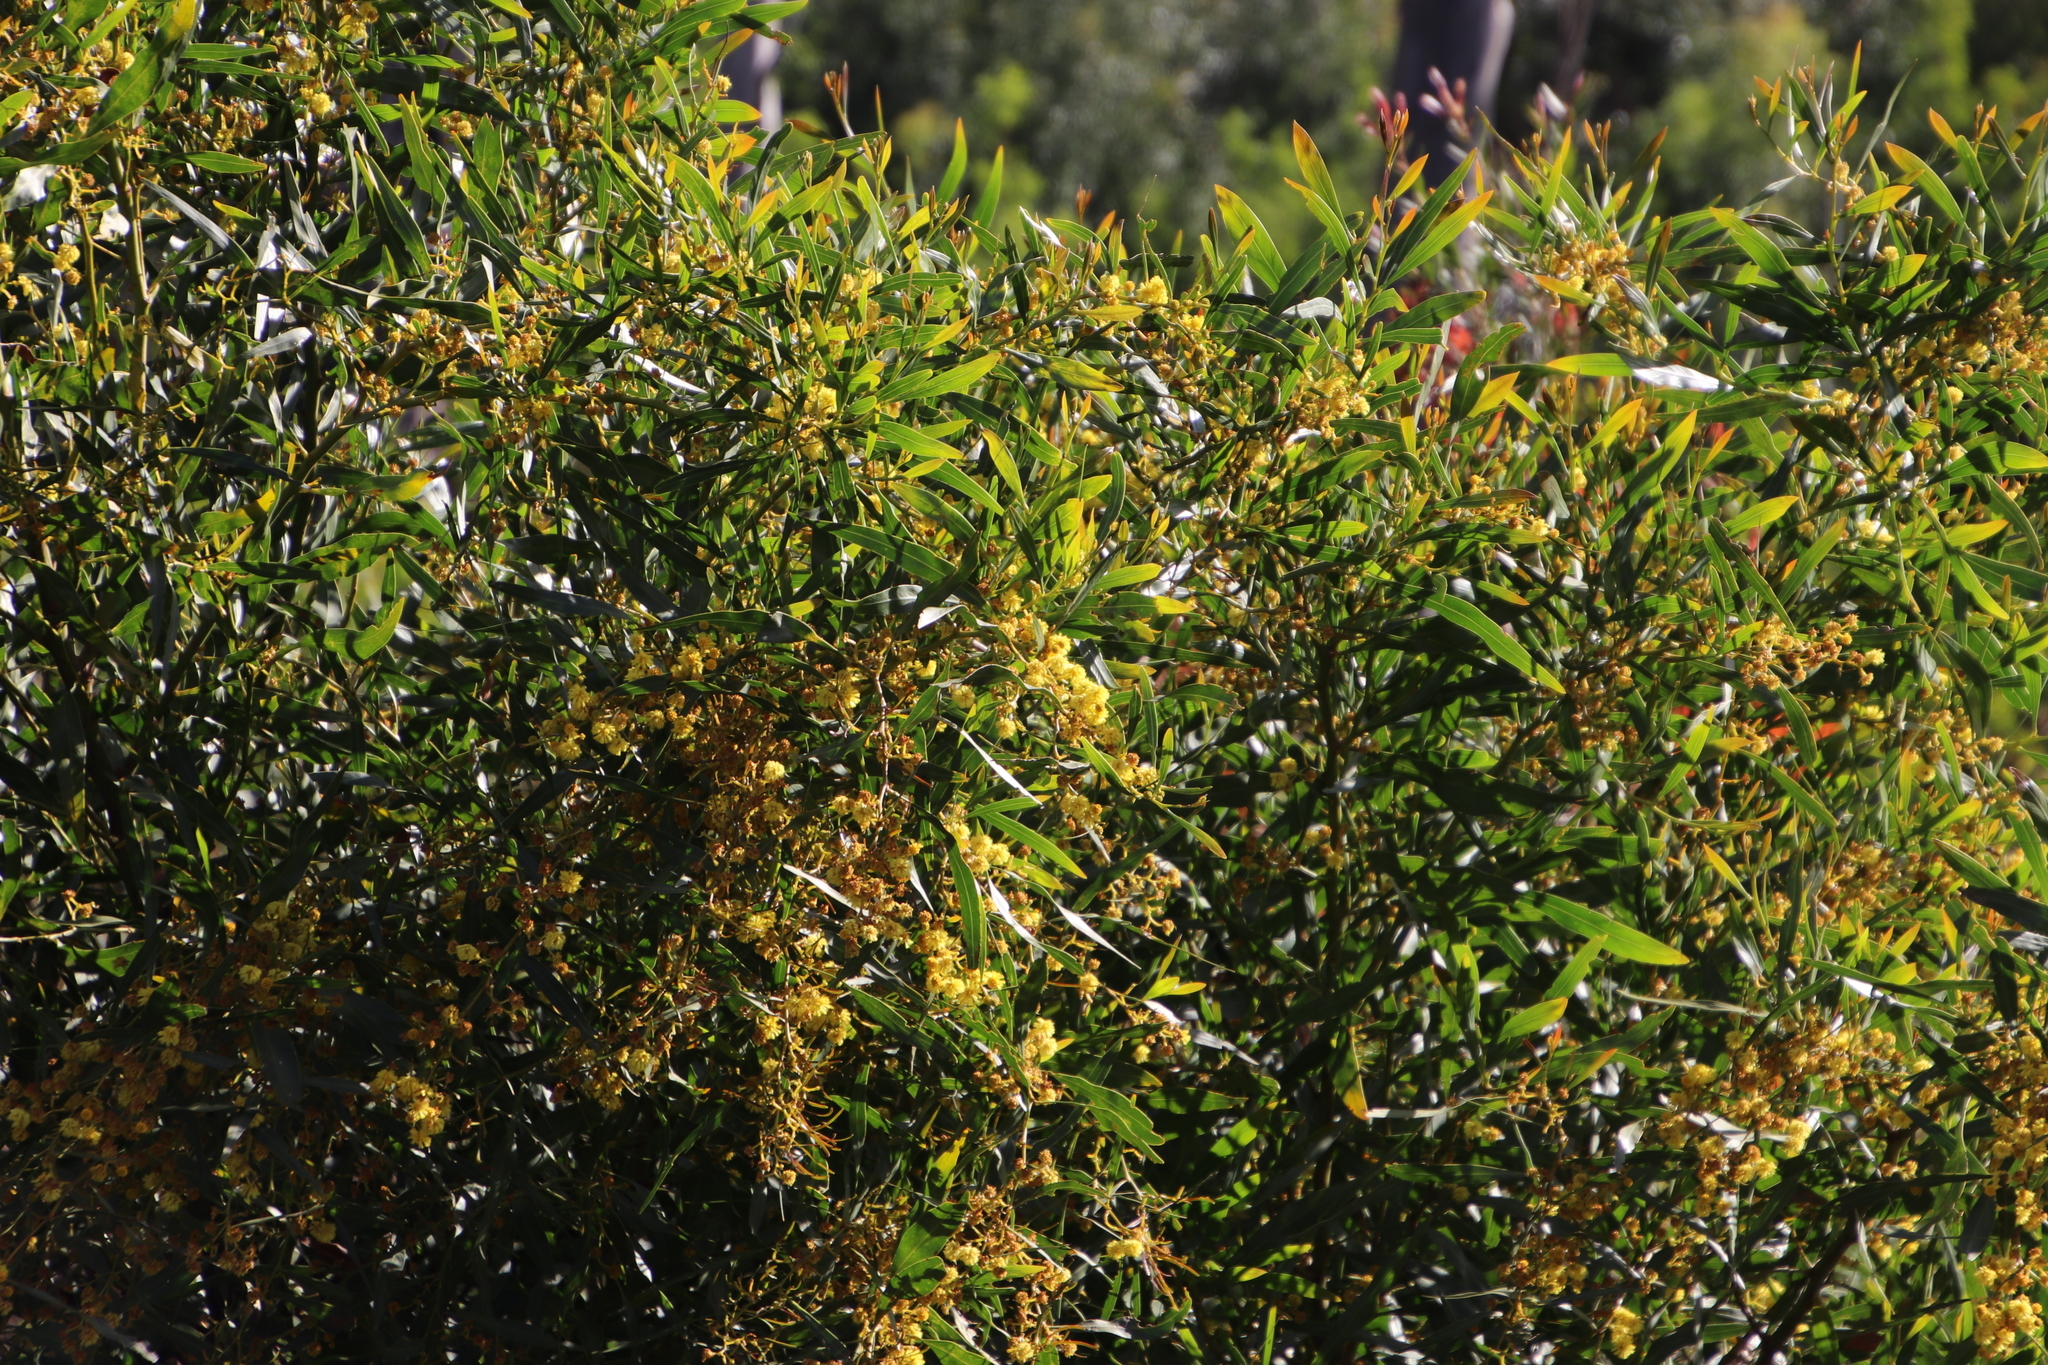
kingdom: Plantae
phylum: Tracheophyta
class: Magnoliopsida
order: Fabales
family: Fabaceae
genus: Acacia
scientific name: Acacia saligna
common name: Orange wattle
